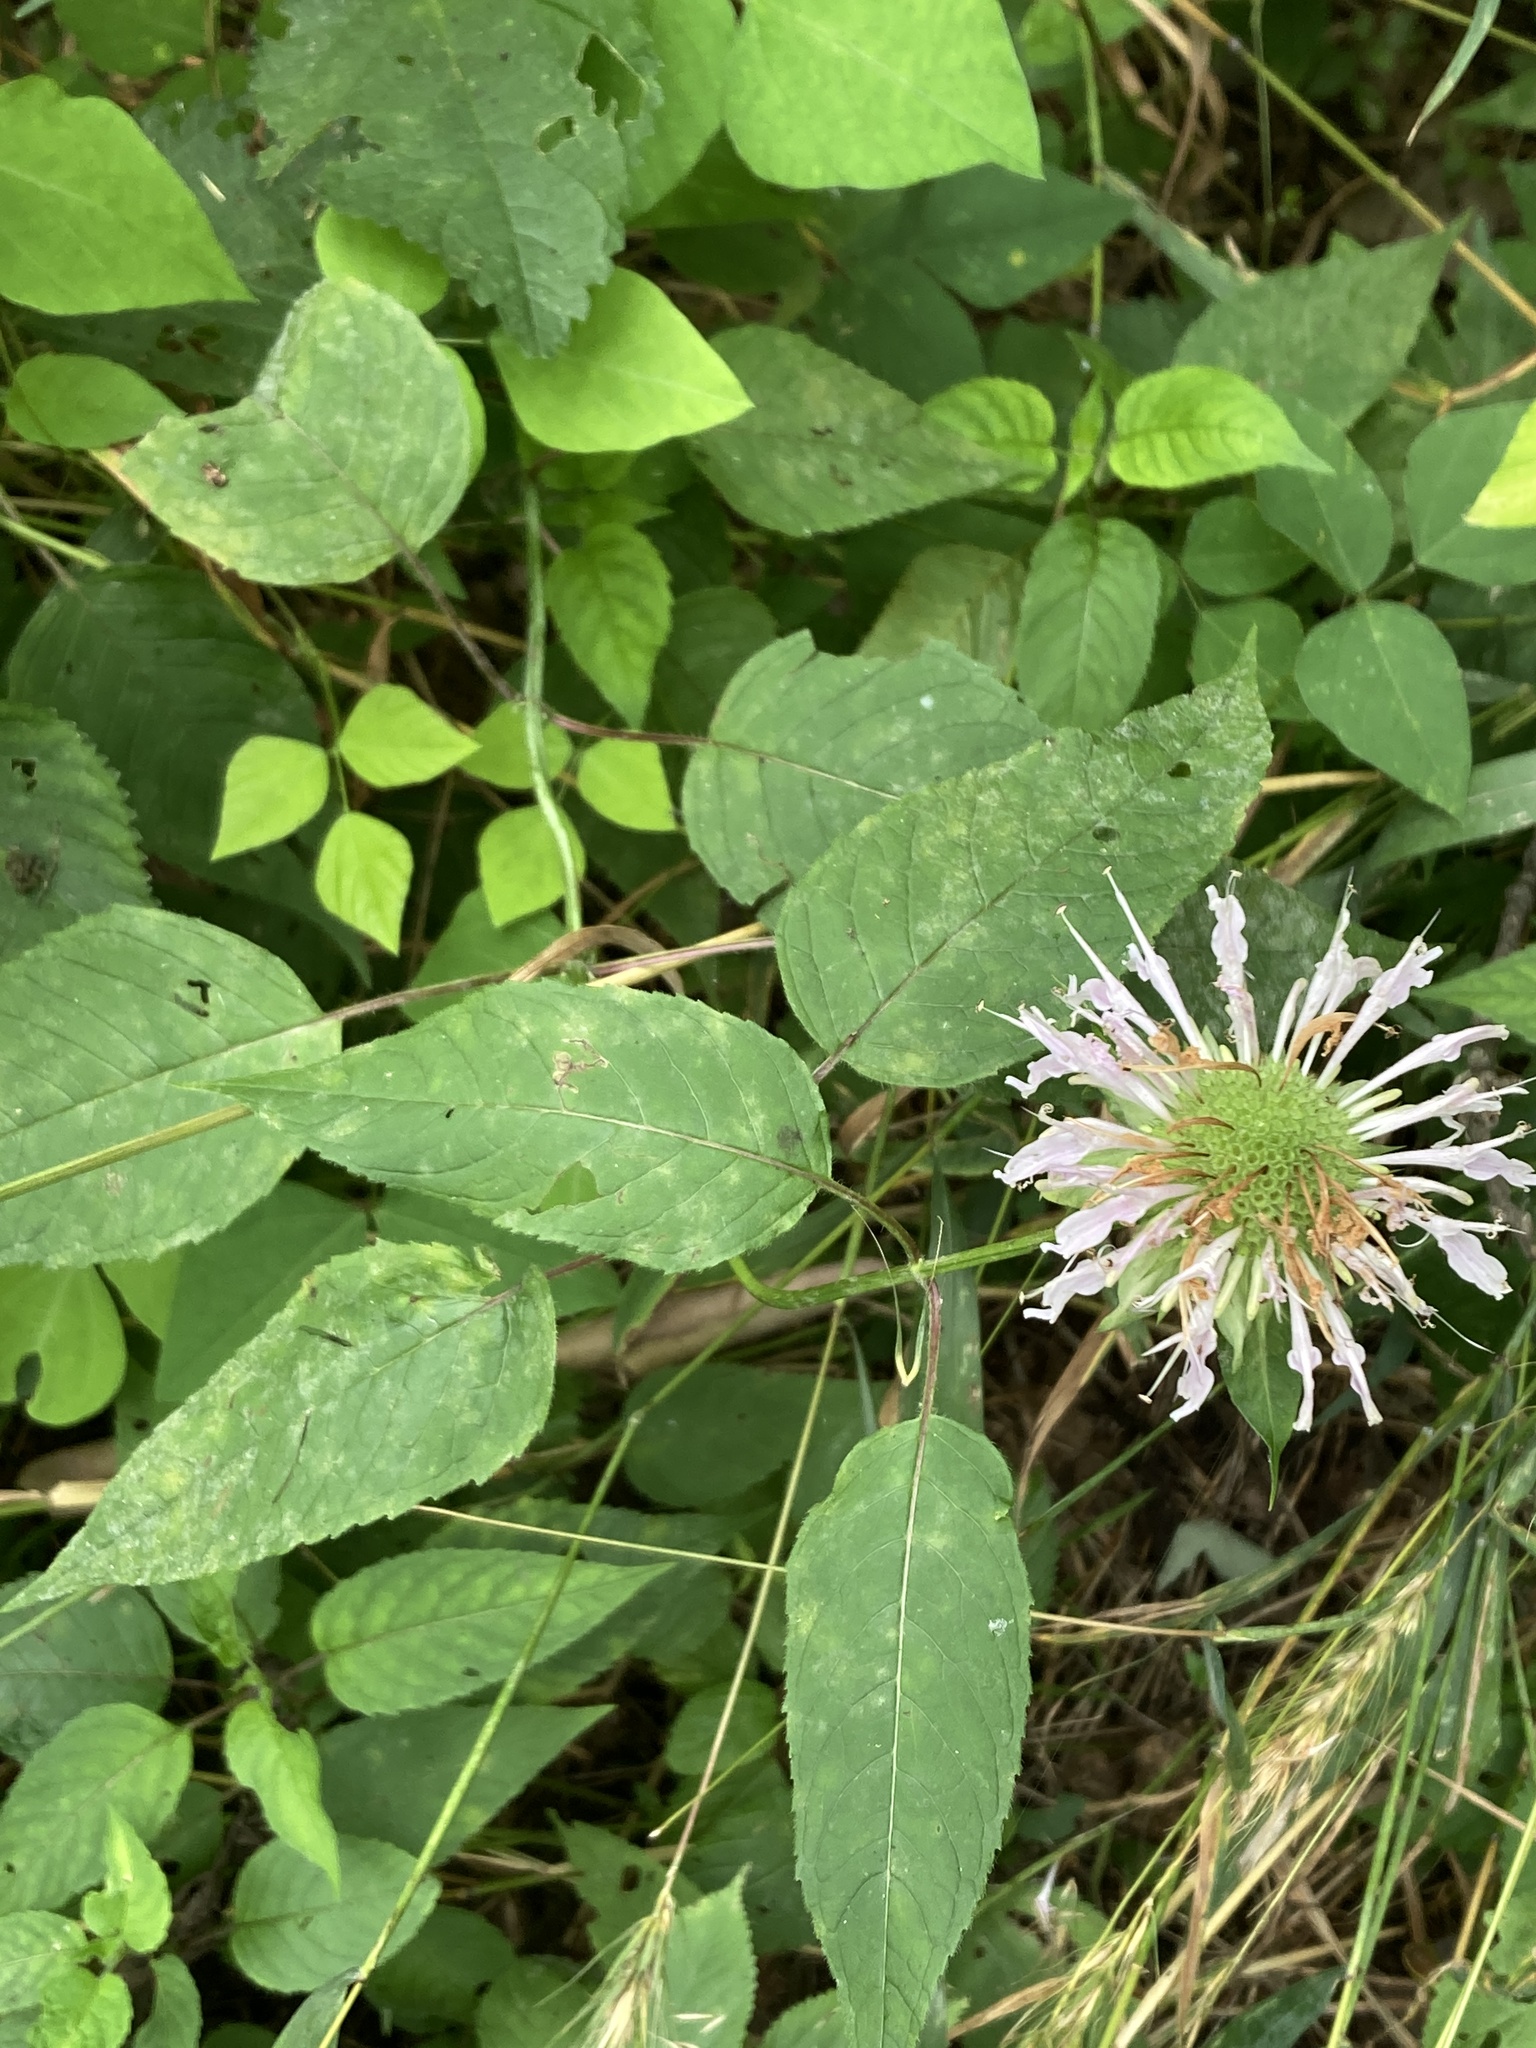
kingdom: Plantae
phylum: Tracheophyta
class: Magnoliopsida
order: Lamiales
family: Lamiaceae
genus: Monarda
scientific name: Monarda
